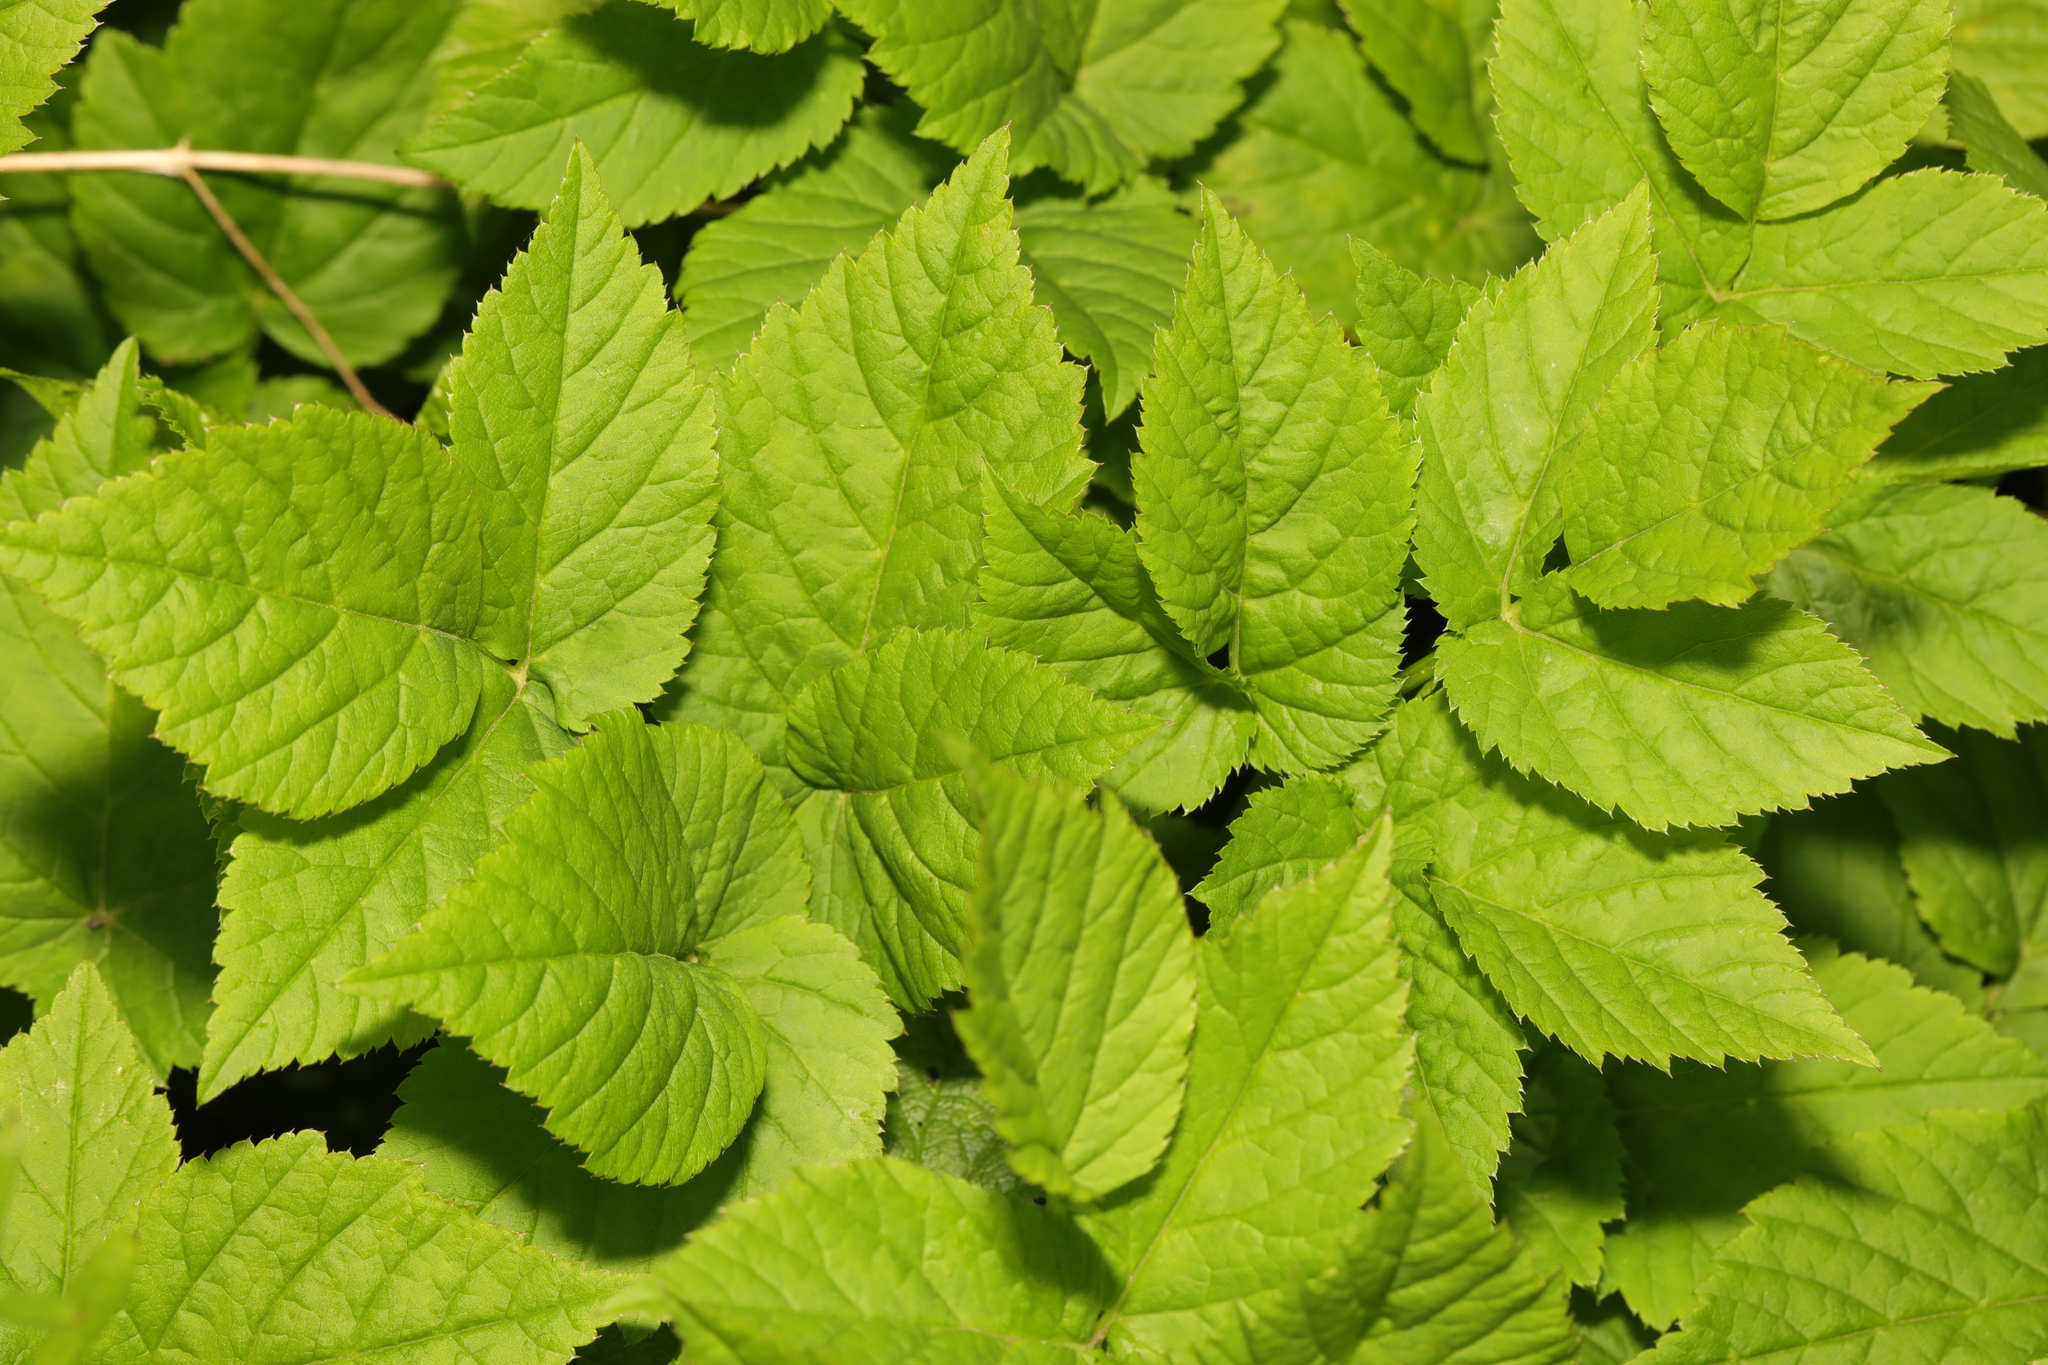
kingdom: Plantae
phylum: Tracheophyta
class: Magnoliopsida
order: Apiales
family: Apiaceae
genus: Aegopodium
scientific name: Aegopodium podagraria
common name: Ground-elder
